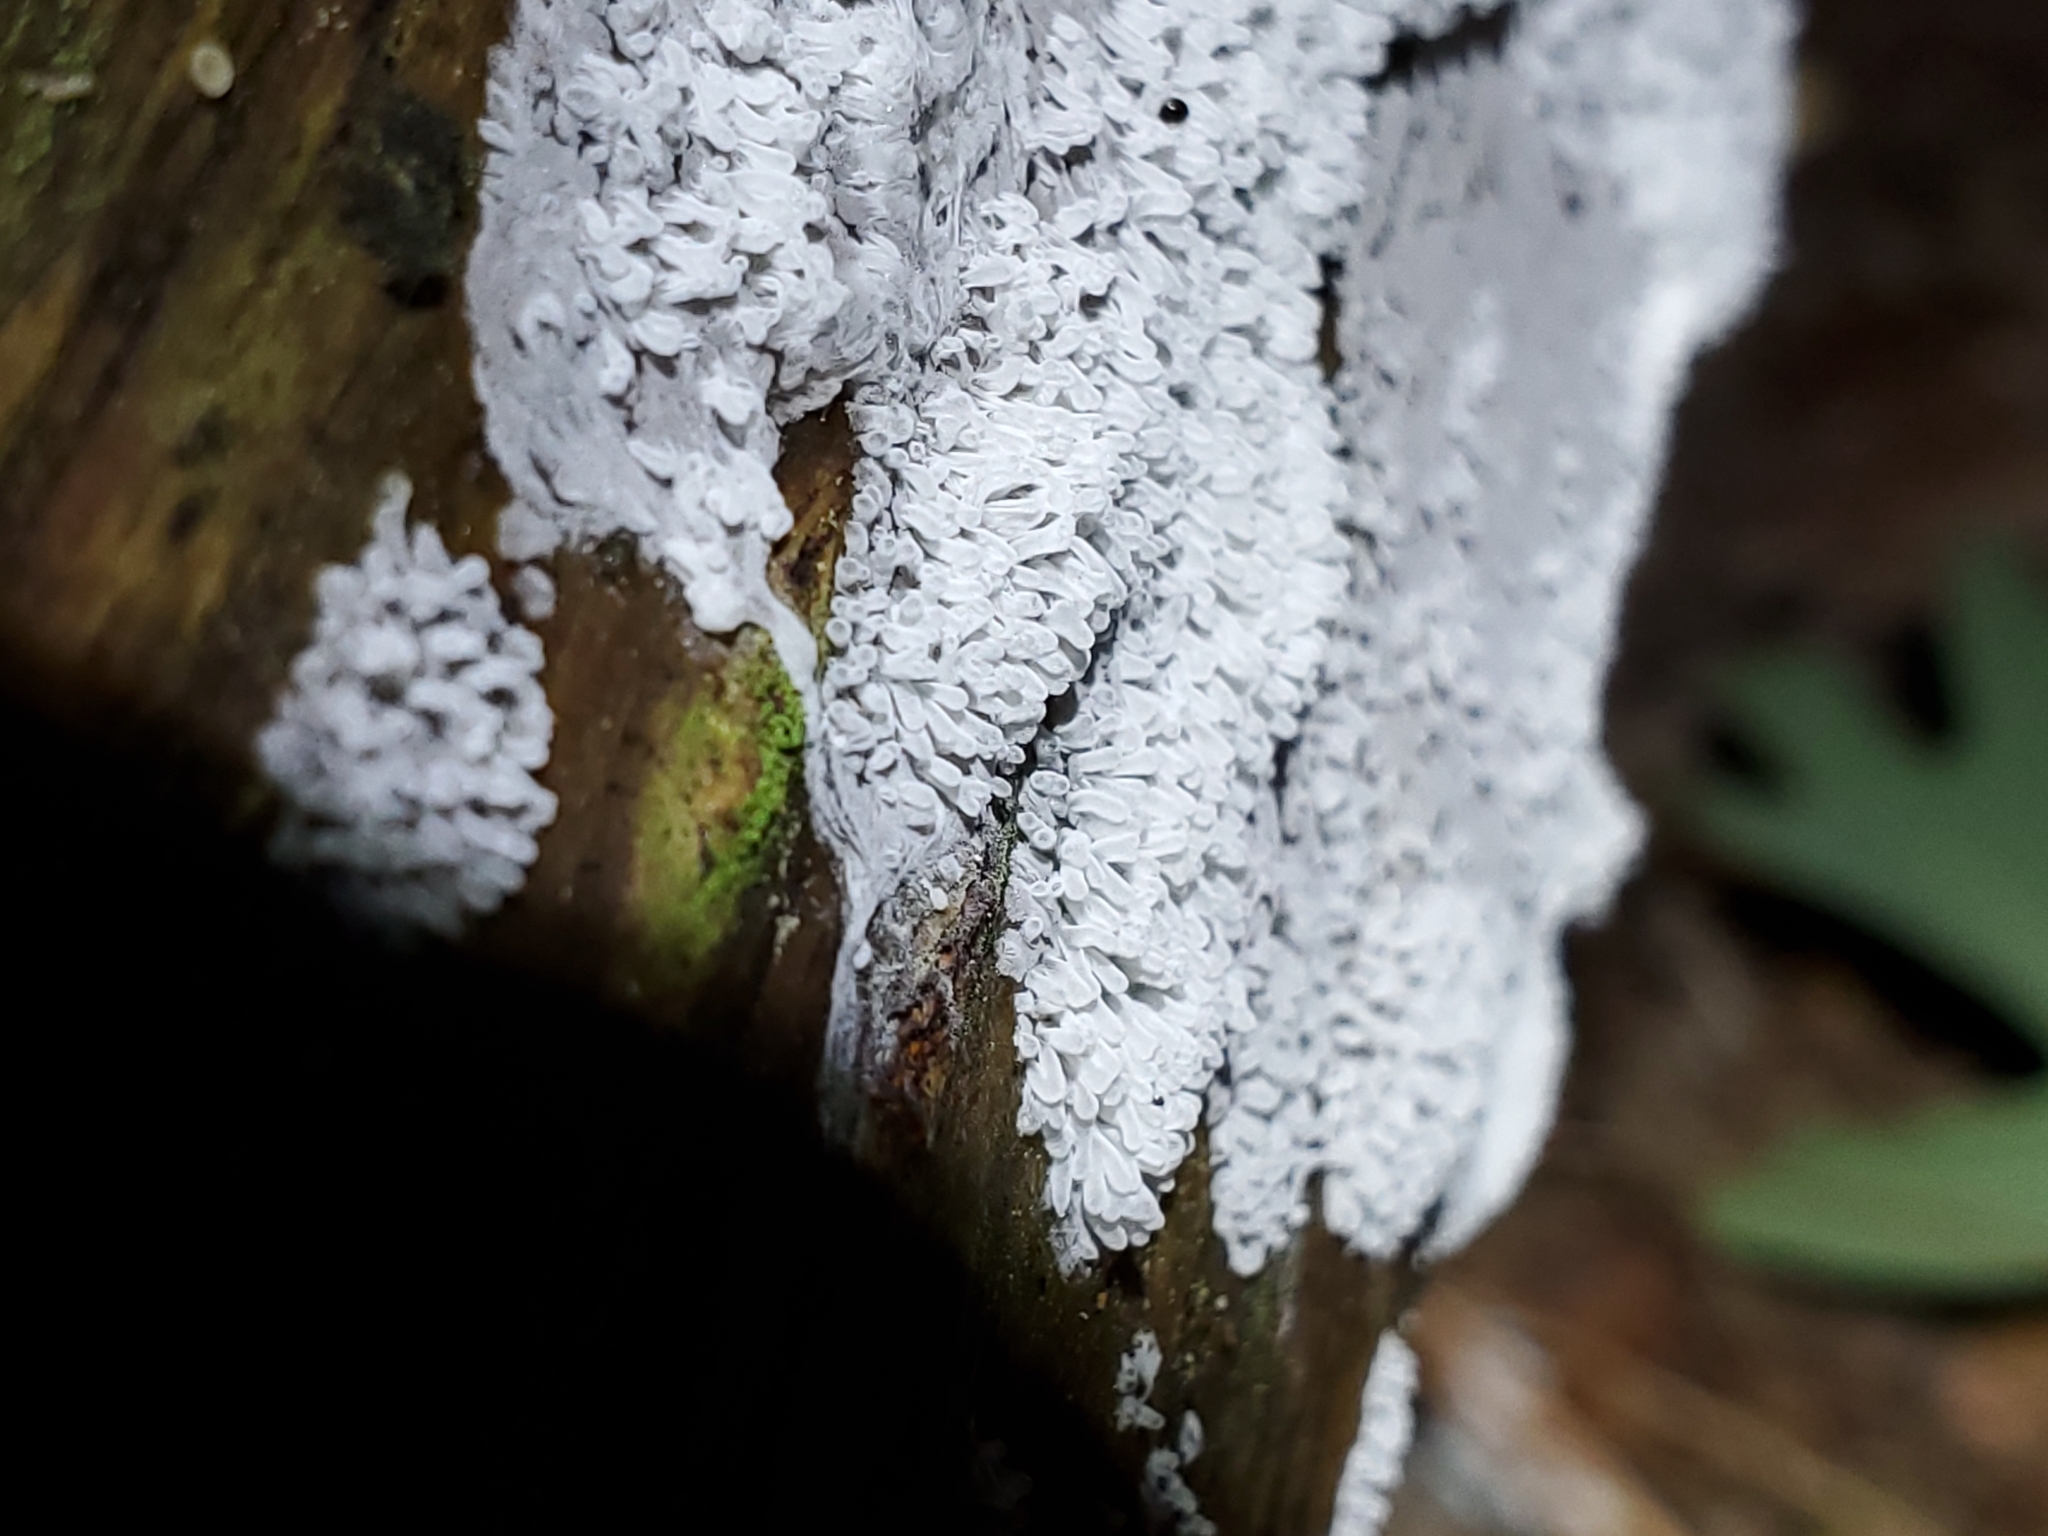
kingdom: Protozoa
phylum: Mycetozoa
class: Protosteliomycetes
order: Ceratiomyxales
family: Ceratiomyxaceae
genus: Ceratiomyxa
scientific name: Ceratiomyxa fruticulosa
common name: Honeycomb coral slime mold
